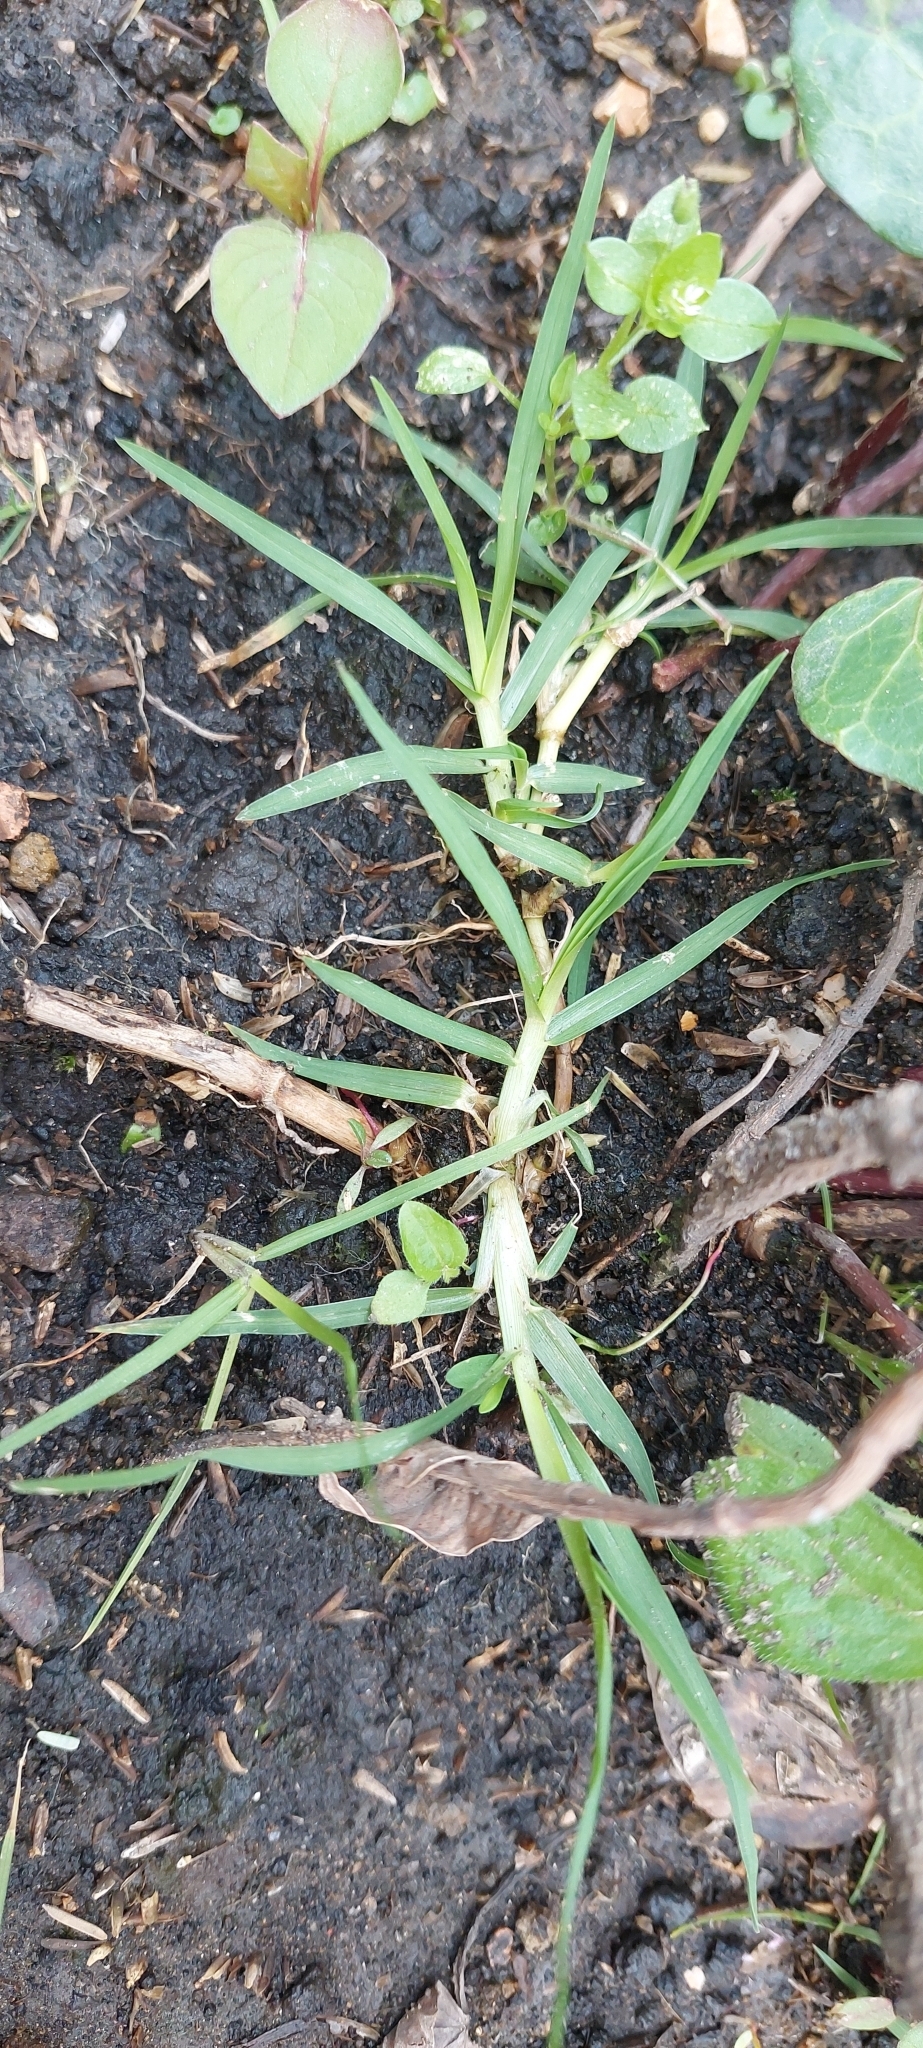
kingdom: Plantae
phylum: Tracheophyta
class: Liliopsida
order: Poales
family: Poaceae
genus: Cenchrus
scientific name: Cenchrus clandestinus
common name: Kikuyugrass
